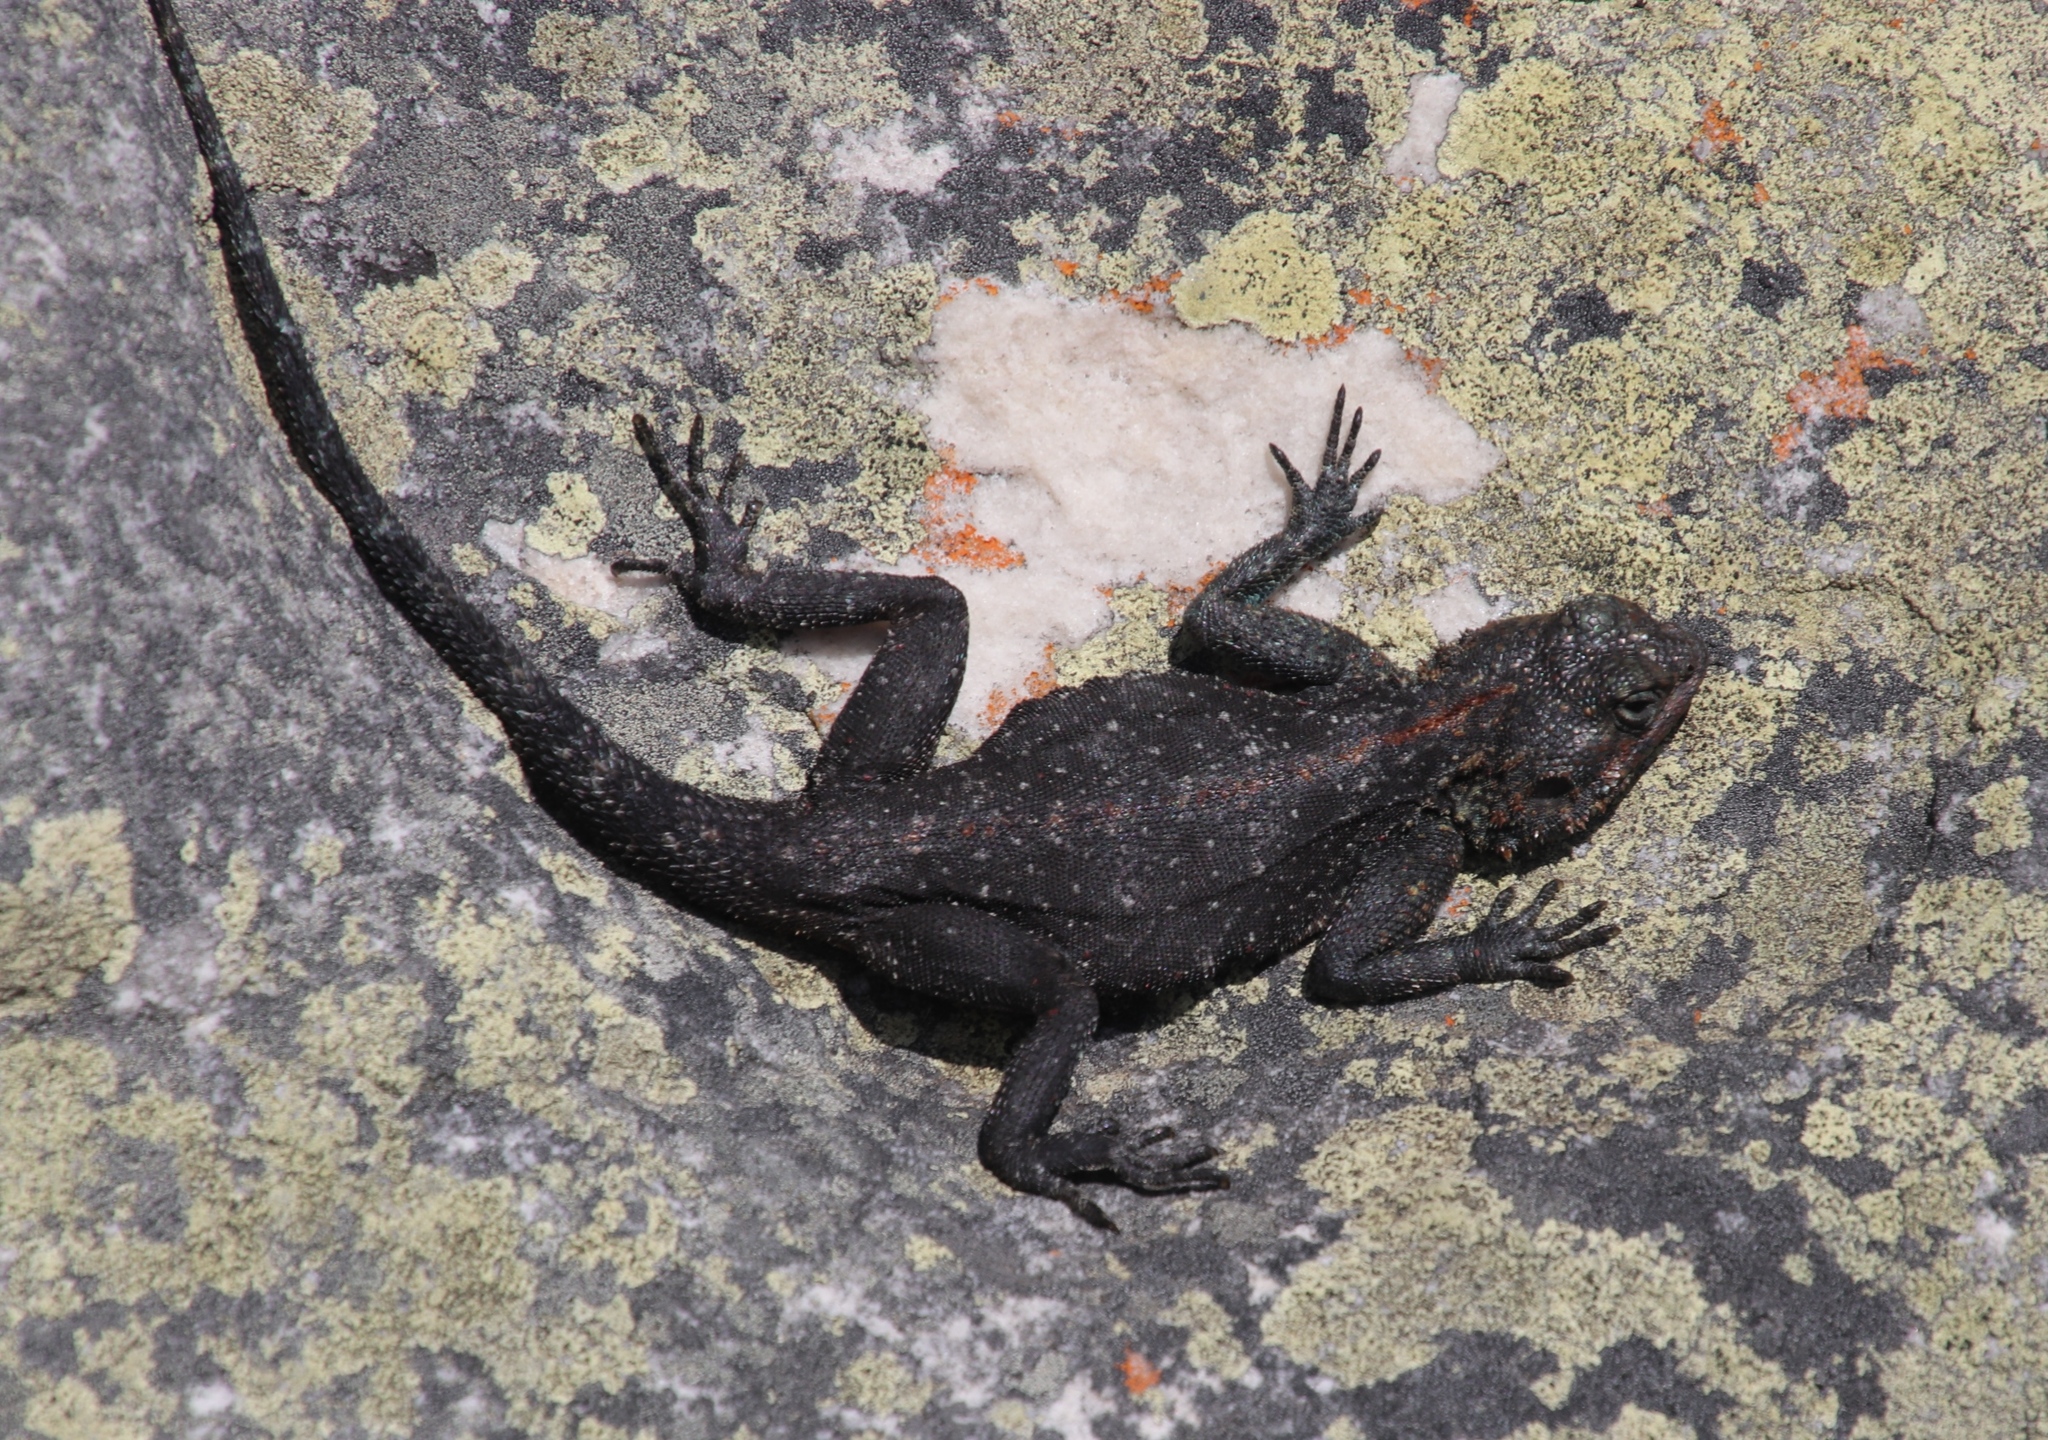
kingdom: Animalia
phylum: Chordata
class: Squamata
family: Agamidae
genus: Agama
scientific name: Agama atra
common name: Southern african rock agama
